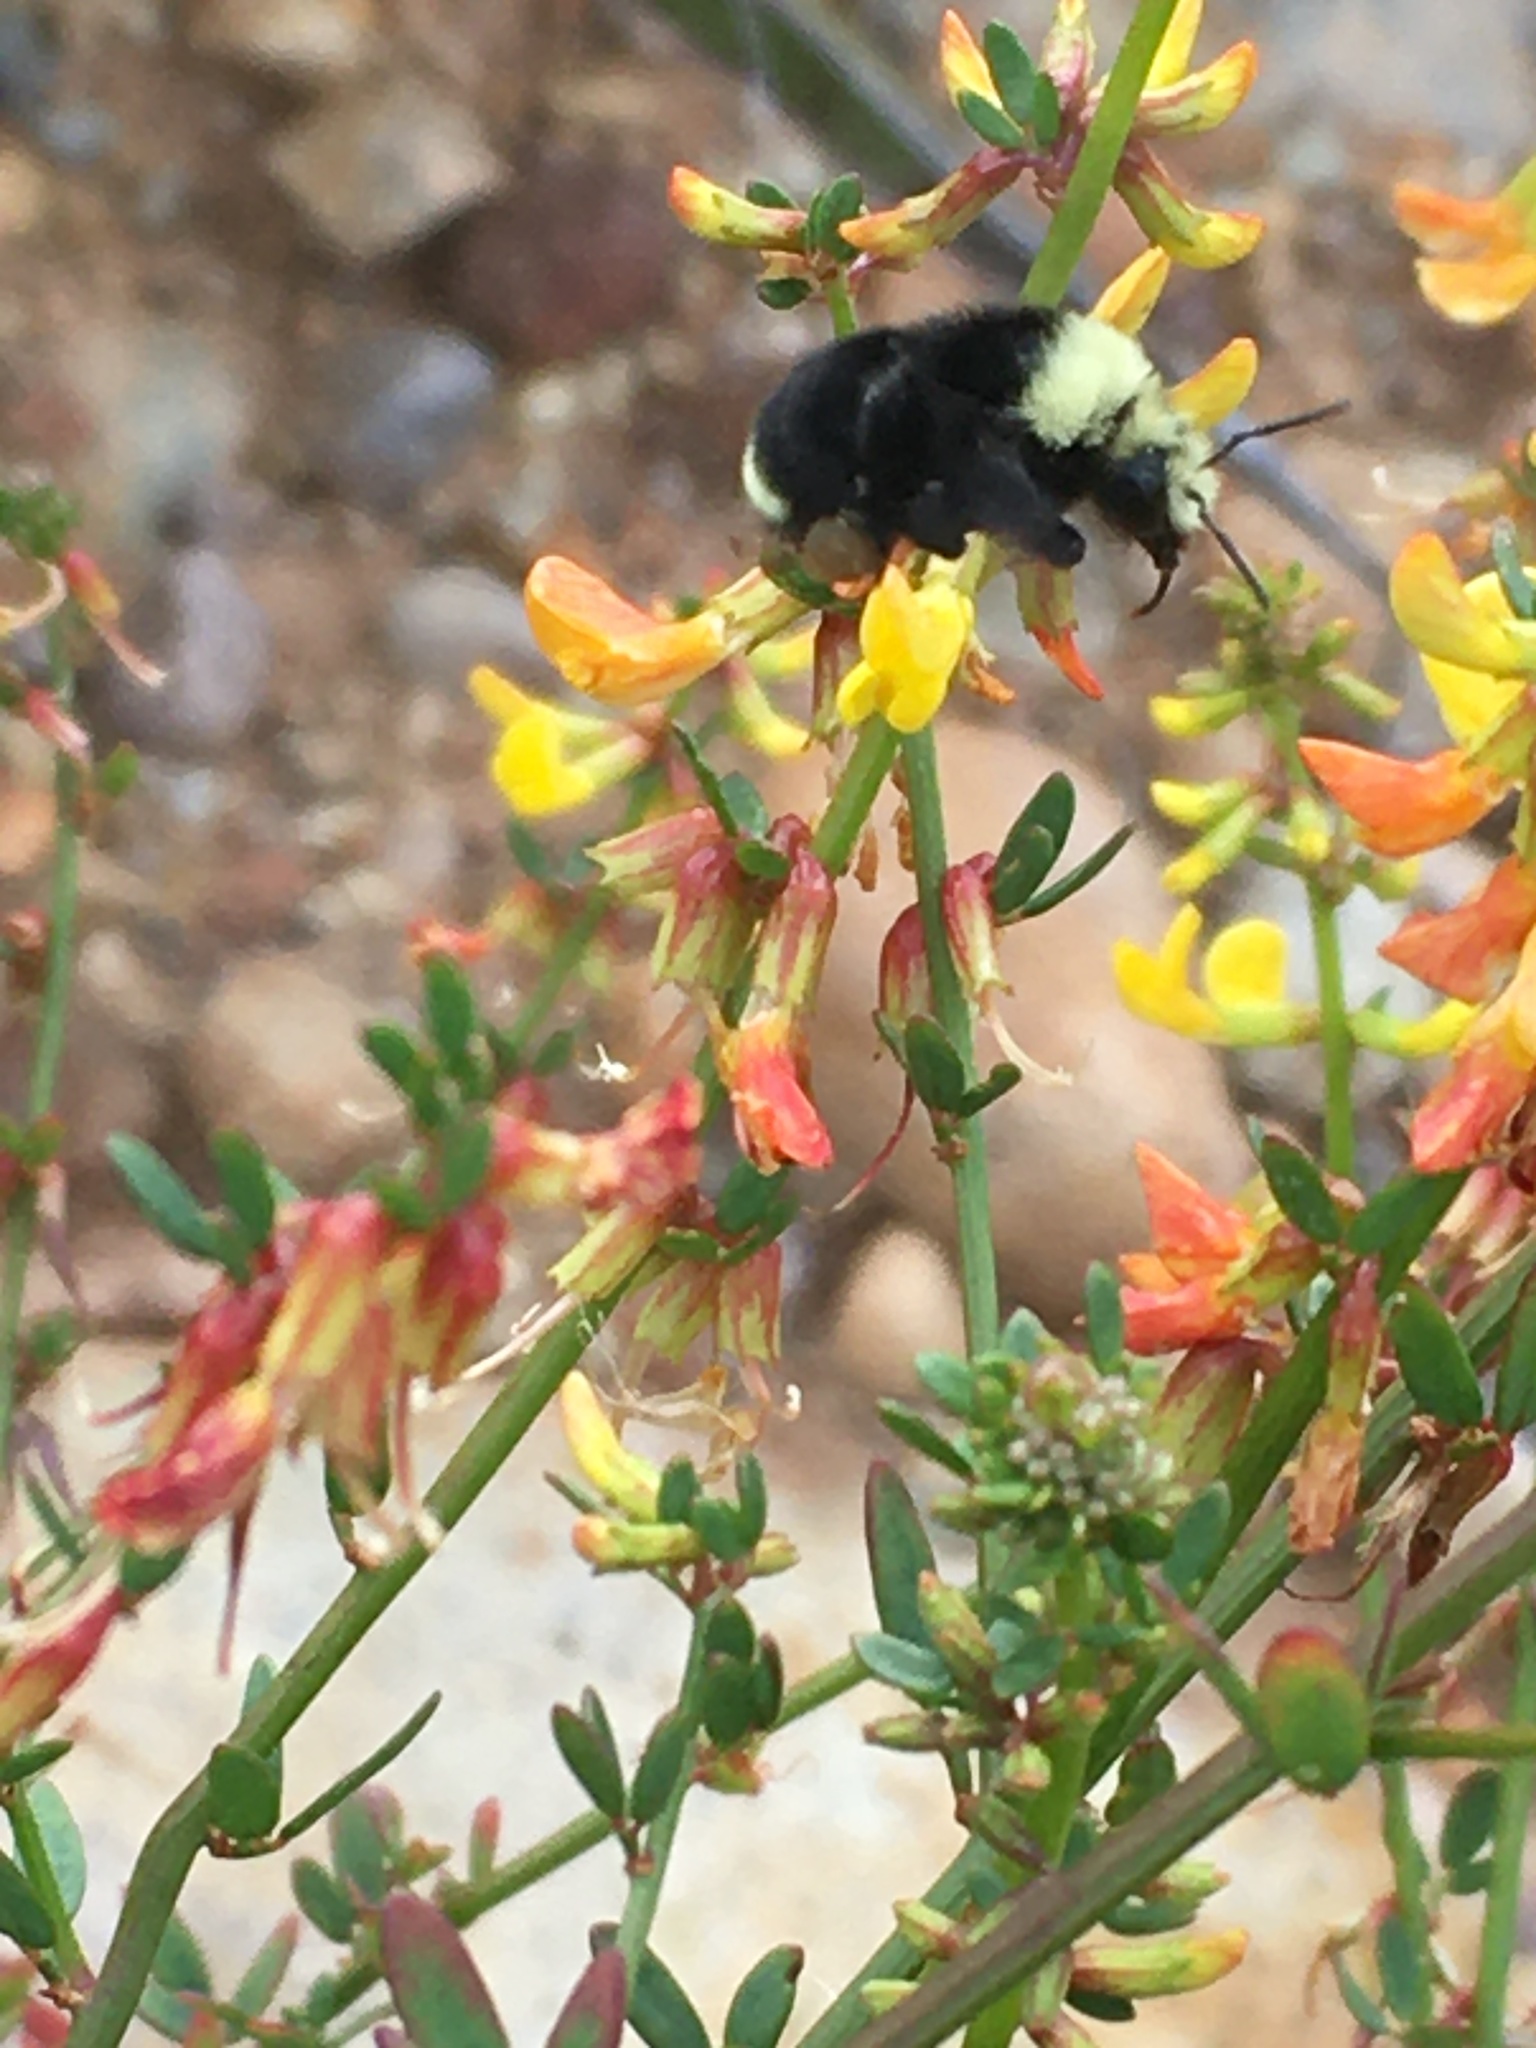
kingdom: Animalia
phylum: Arthropoda
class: Insecta
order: Hymenoptera
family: Apidae
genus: Bombus
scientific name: Bombus vosnesenskii
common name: Vosnesensky bumble bee
